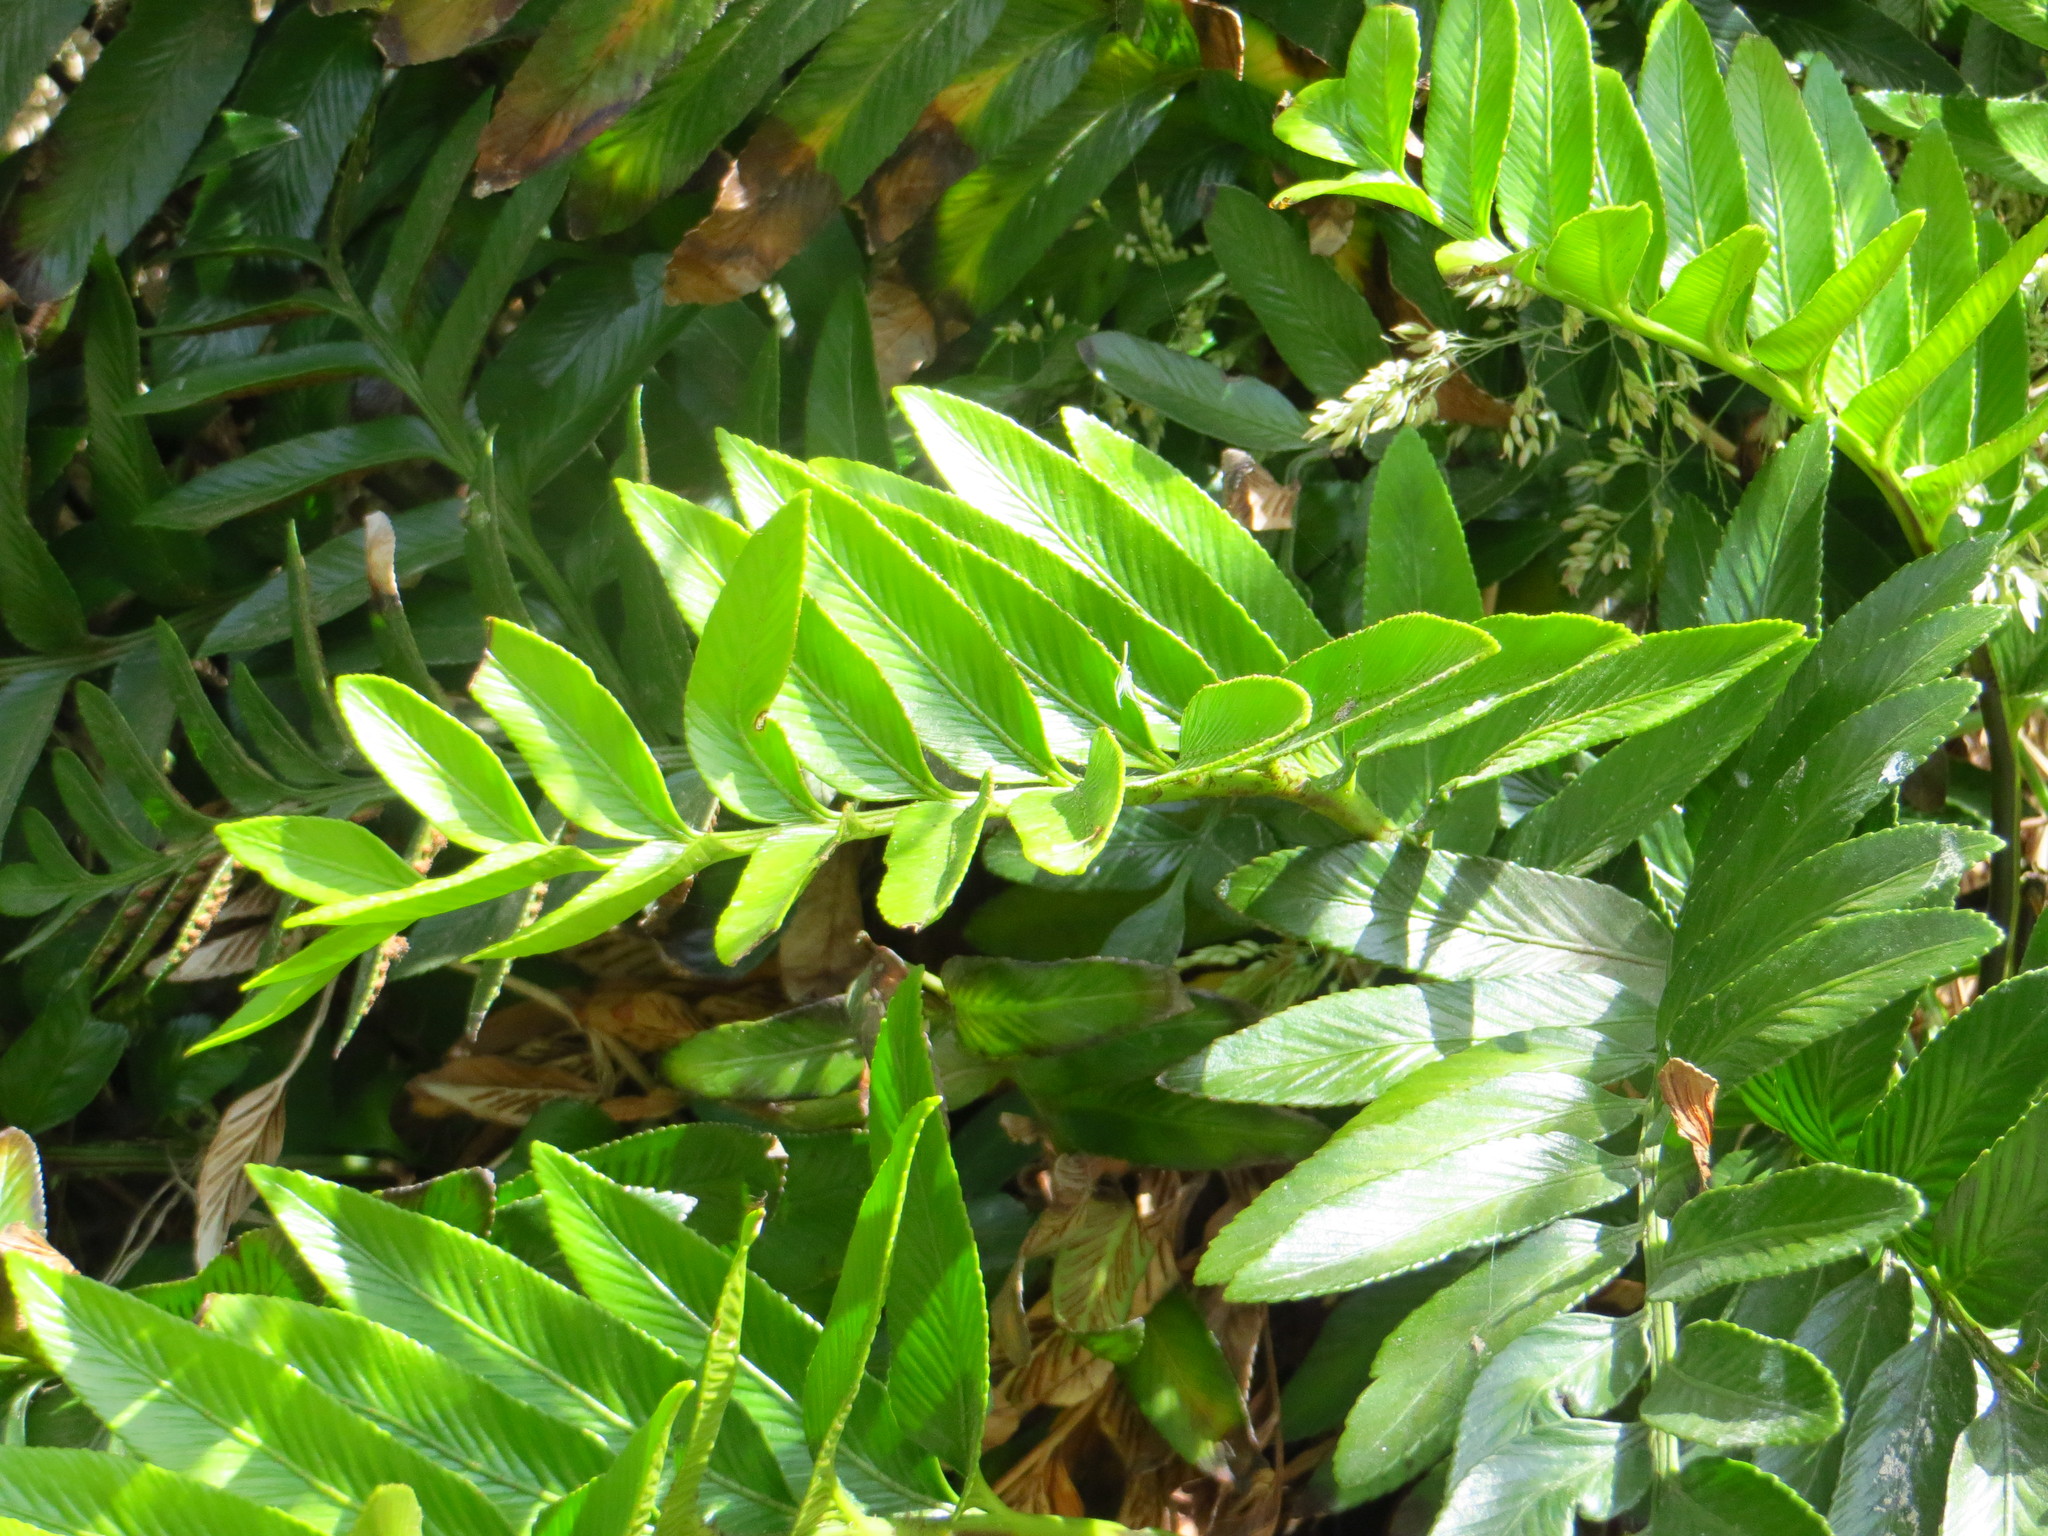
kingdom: Plantae
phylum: Tracheophyta
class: Polypodiopsida
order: Polypodiales
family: Aspleniaceae
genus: Asplenium
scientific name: Asplenium obtusatum
